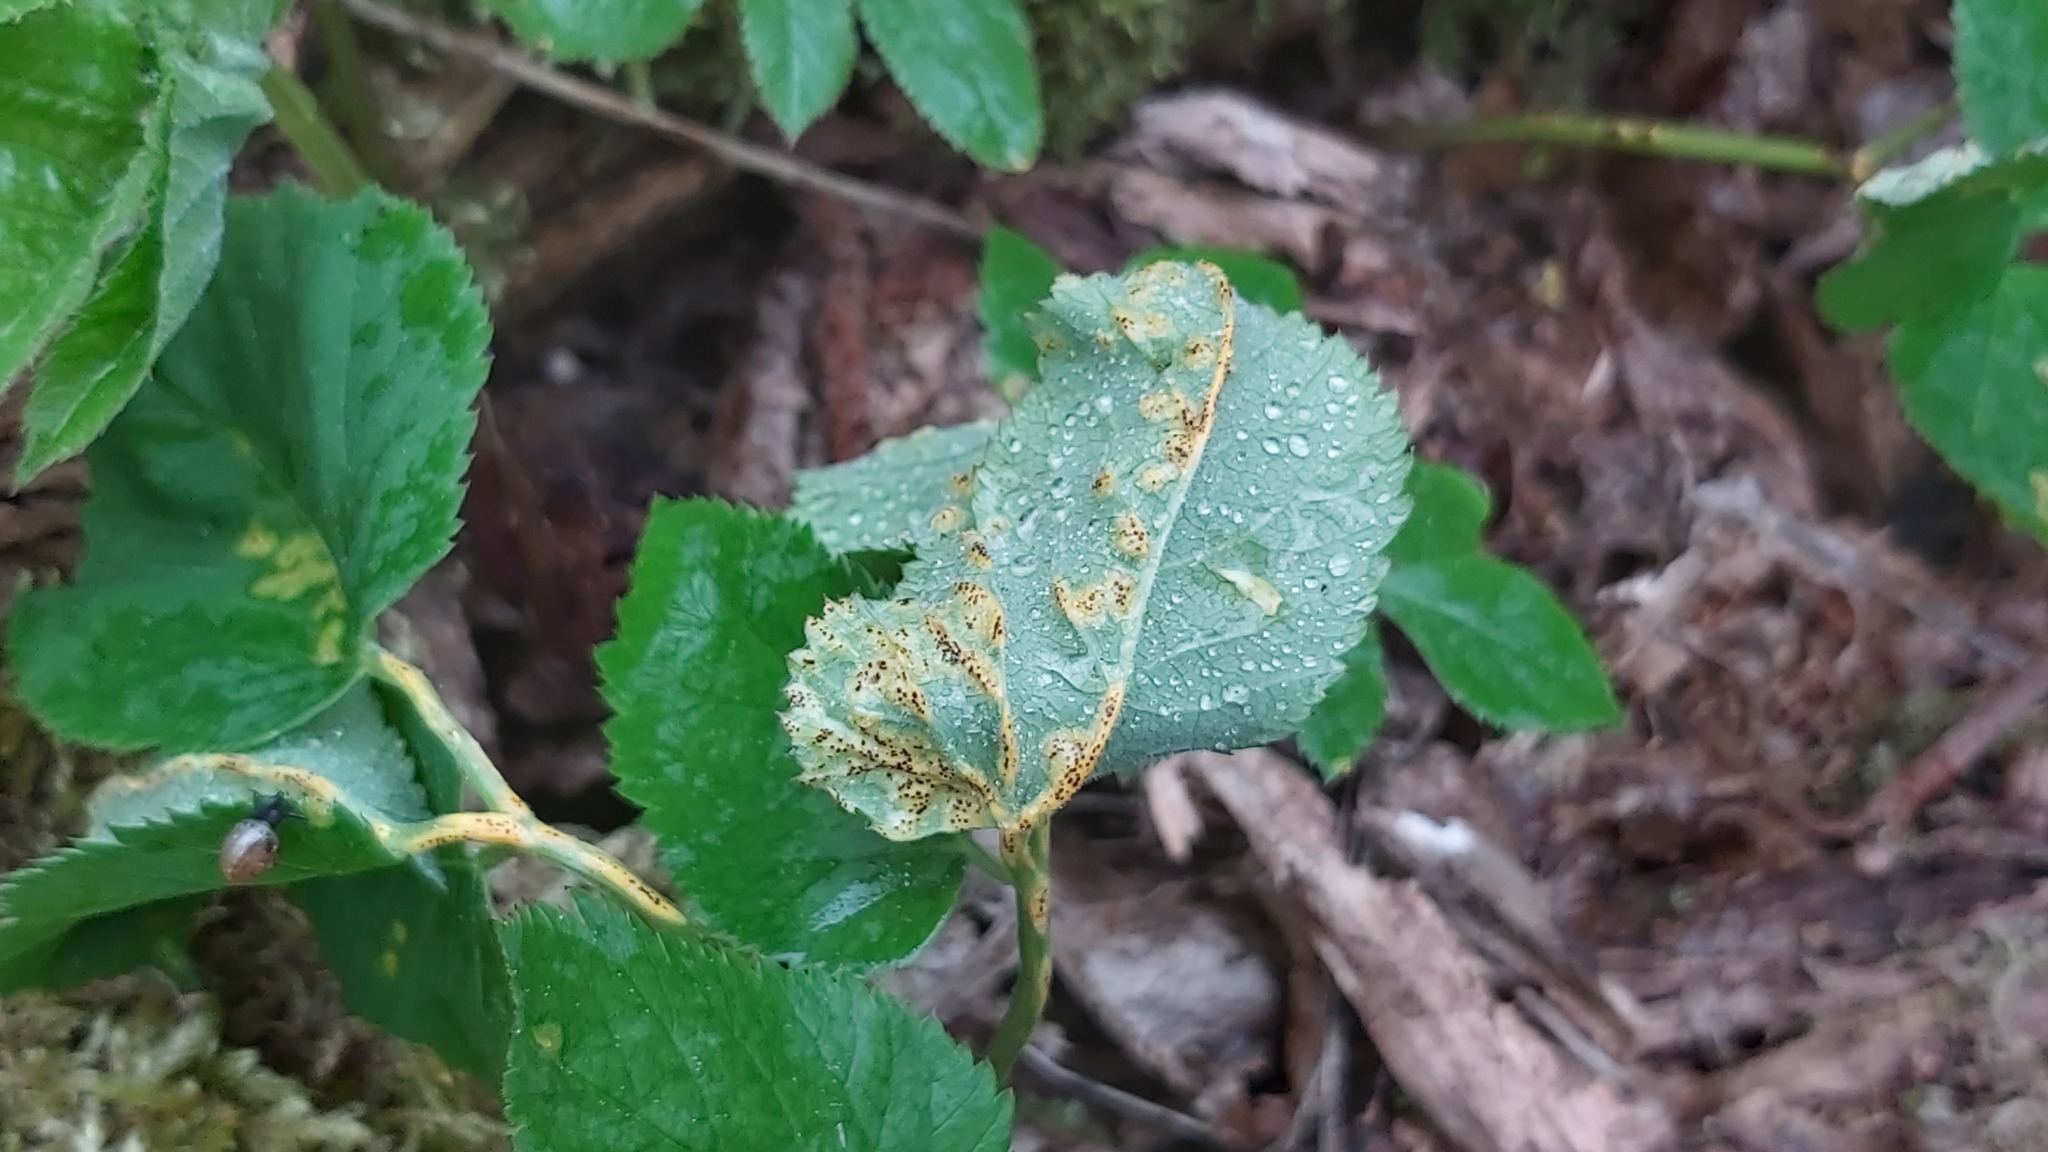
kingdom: Fungi
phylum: Basidiomycota
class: Pucciniomycetes
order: Pucciniales
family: Pucciniaceae
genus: Puccinia
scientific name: Puccinia aegopodii
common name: Ground elder rust
